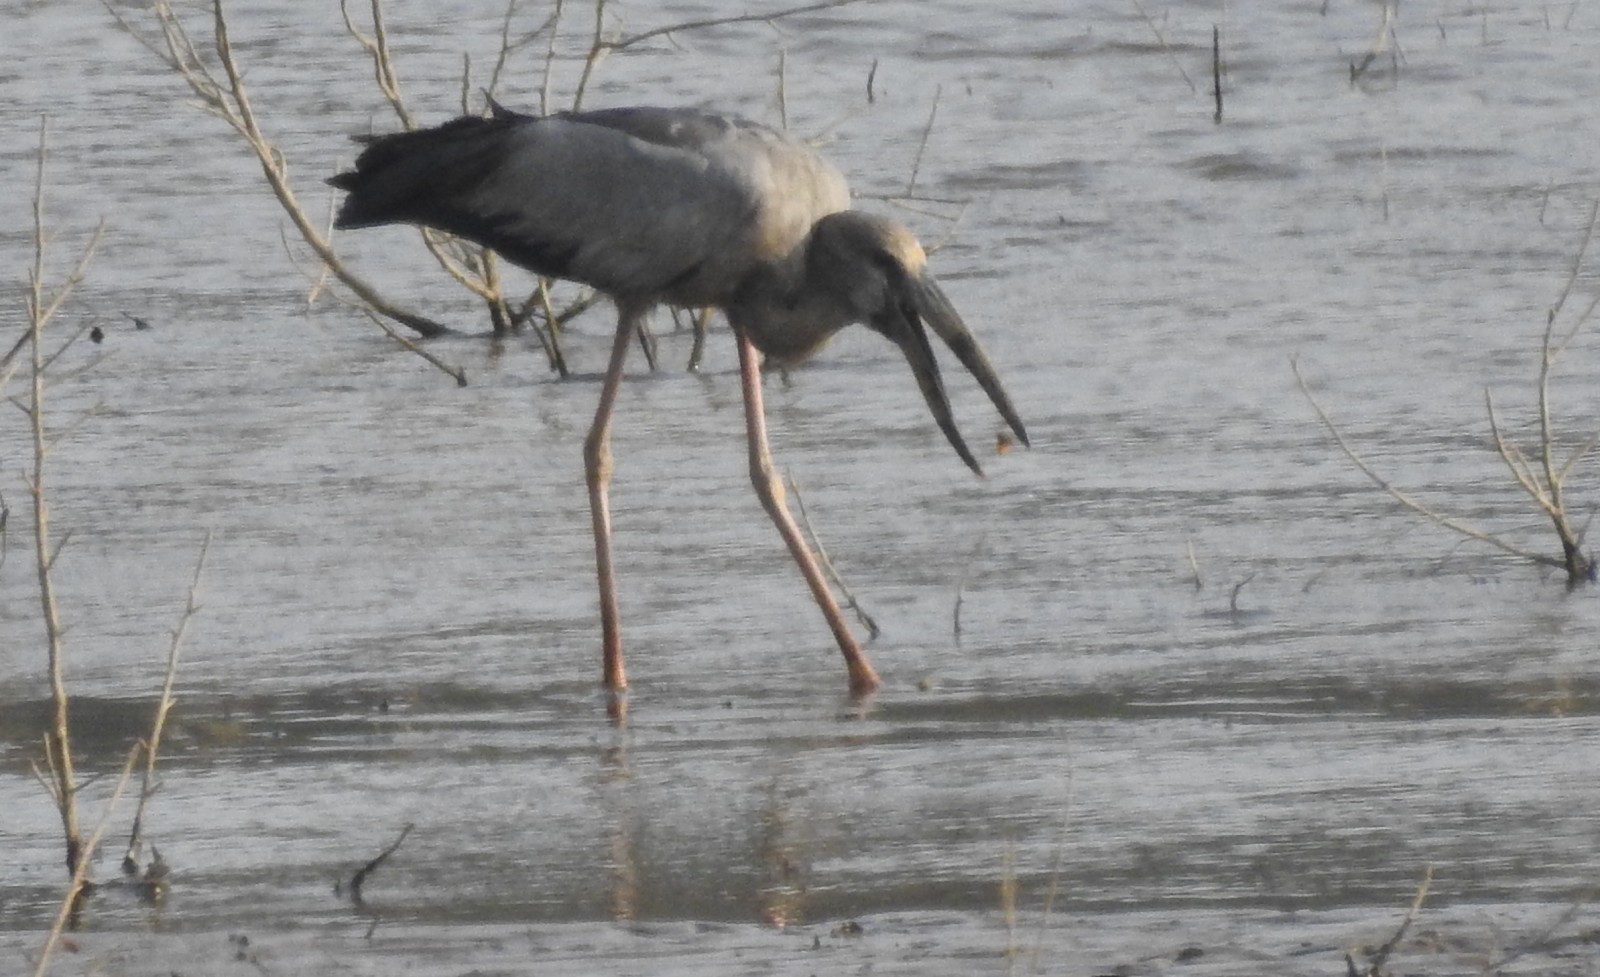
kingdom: Animalia
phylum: Chordata
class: Aves
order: Ciconiiformes
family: Ciconiidae
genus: Anastomus
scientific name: Anastomus oscitans
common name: Asian openbill
